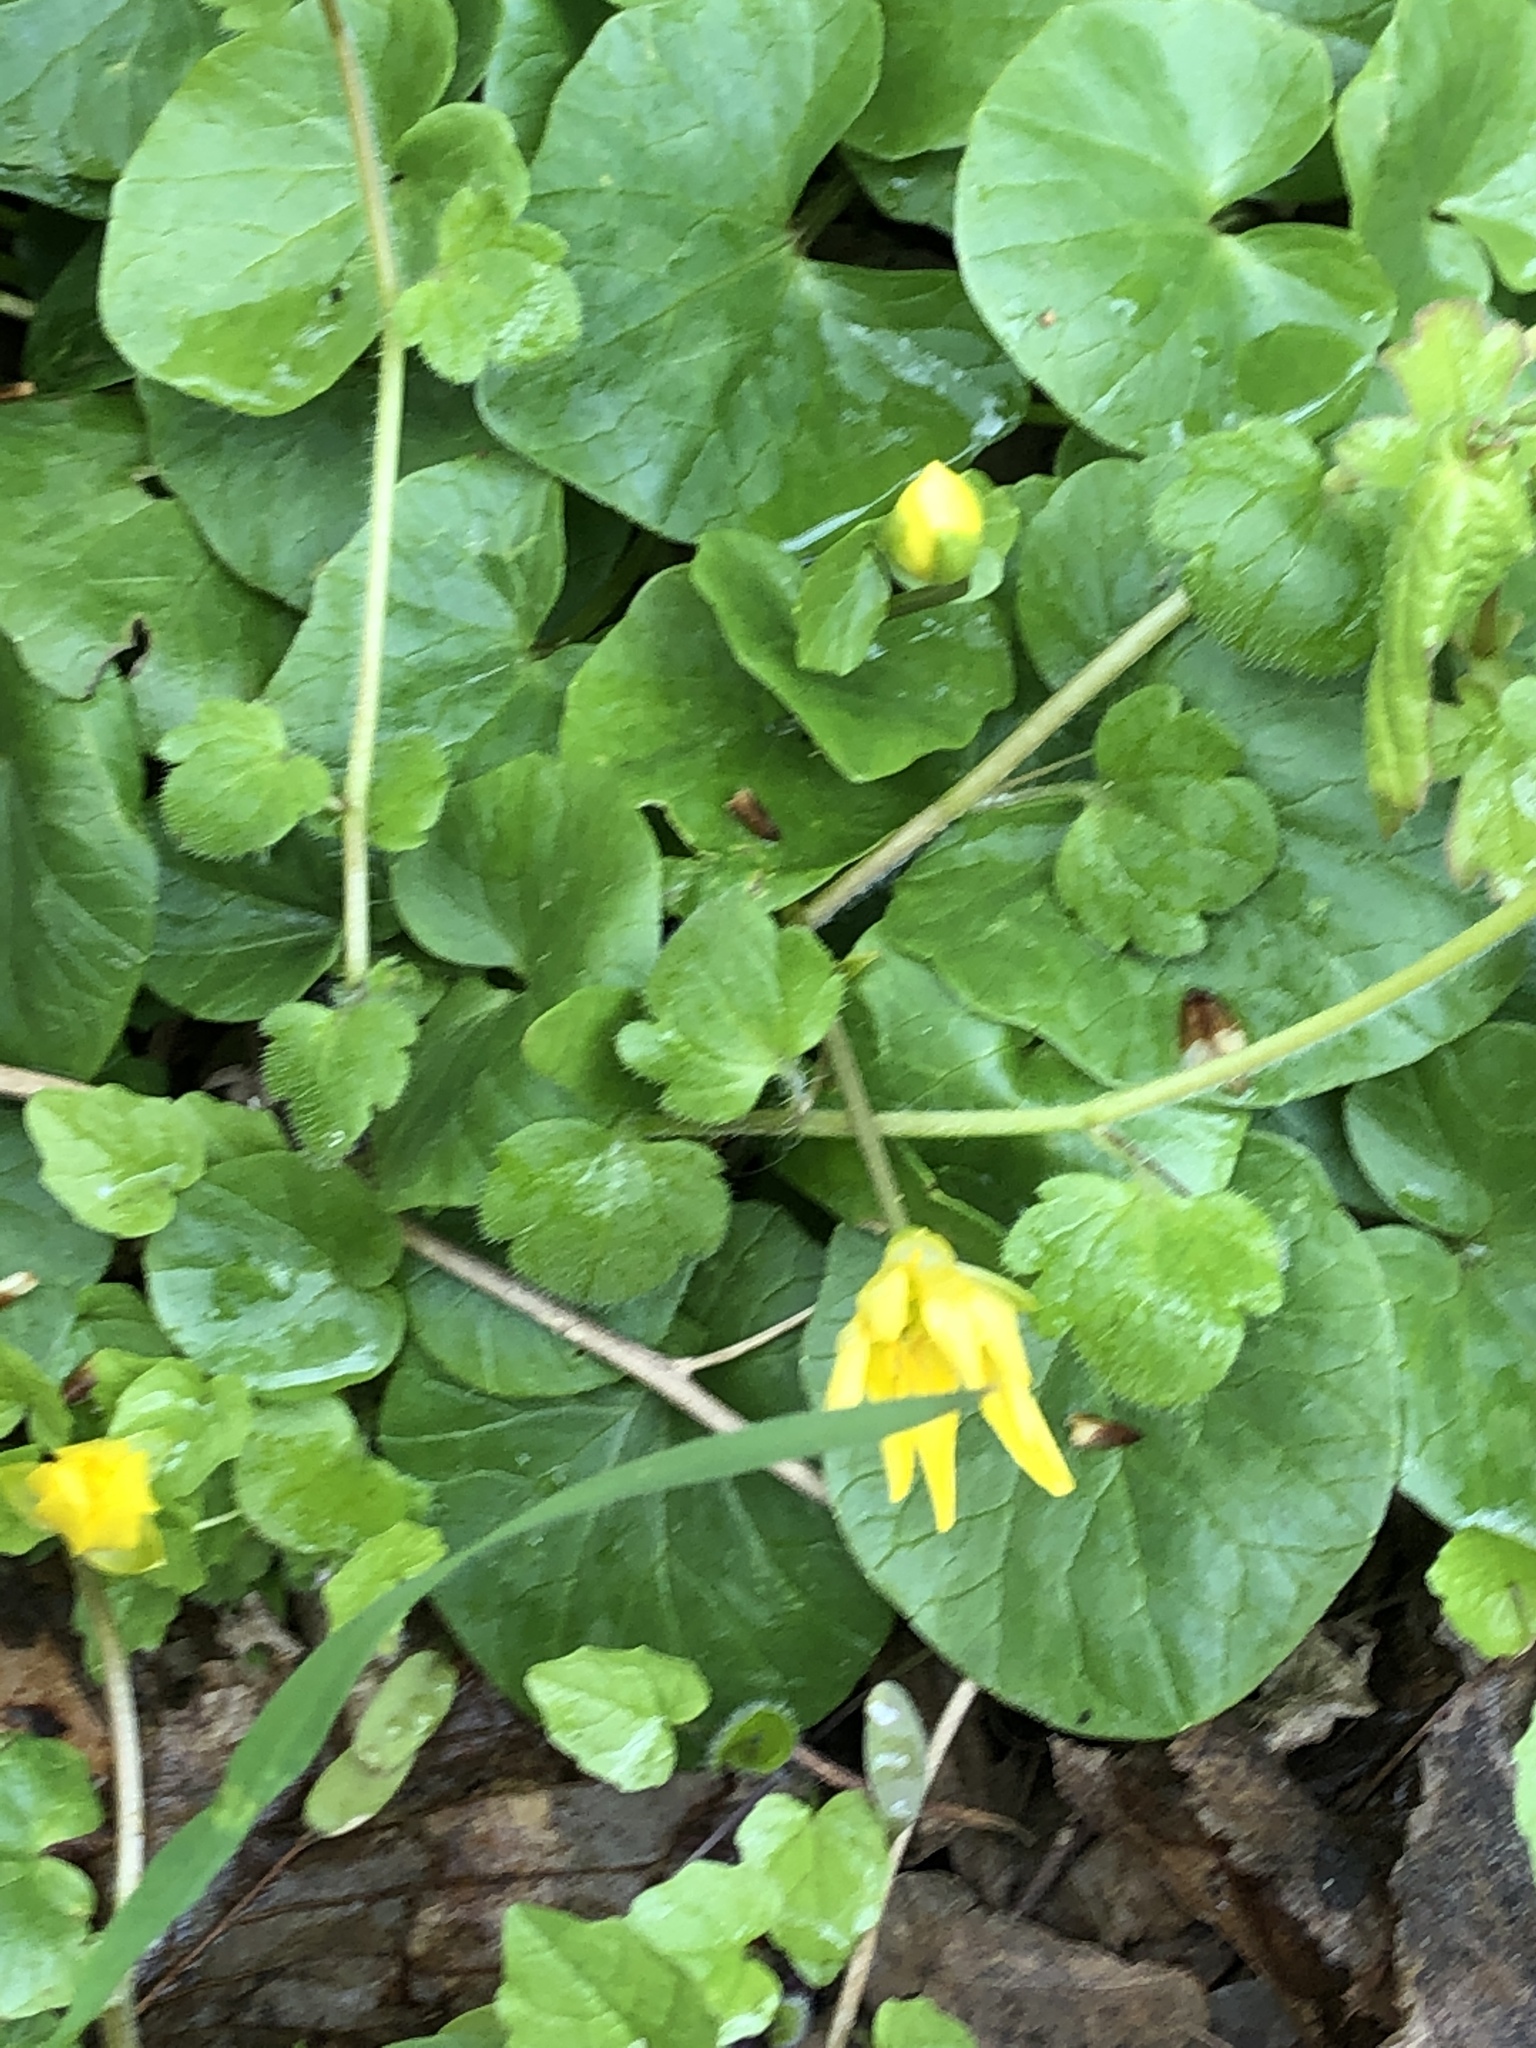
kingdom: Plantae
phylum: Tracheophyta
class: Magnoliopsida
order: Ranunculales
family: Ranunculaceae
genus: Ficaria
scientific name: Ficaria verna
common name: Lesser celandine
